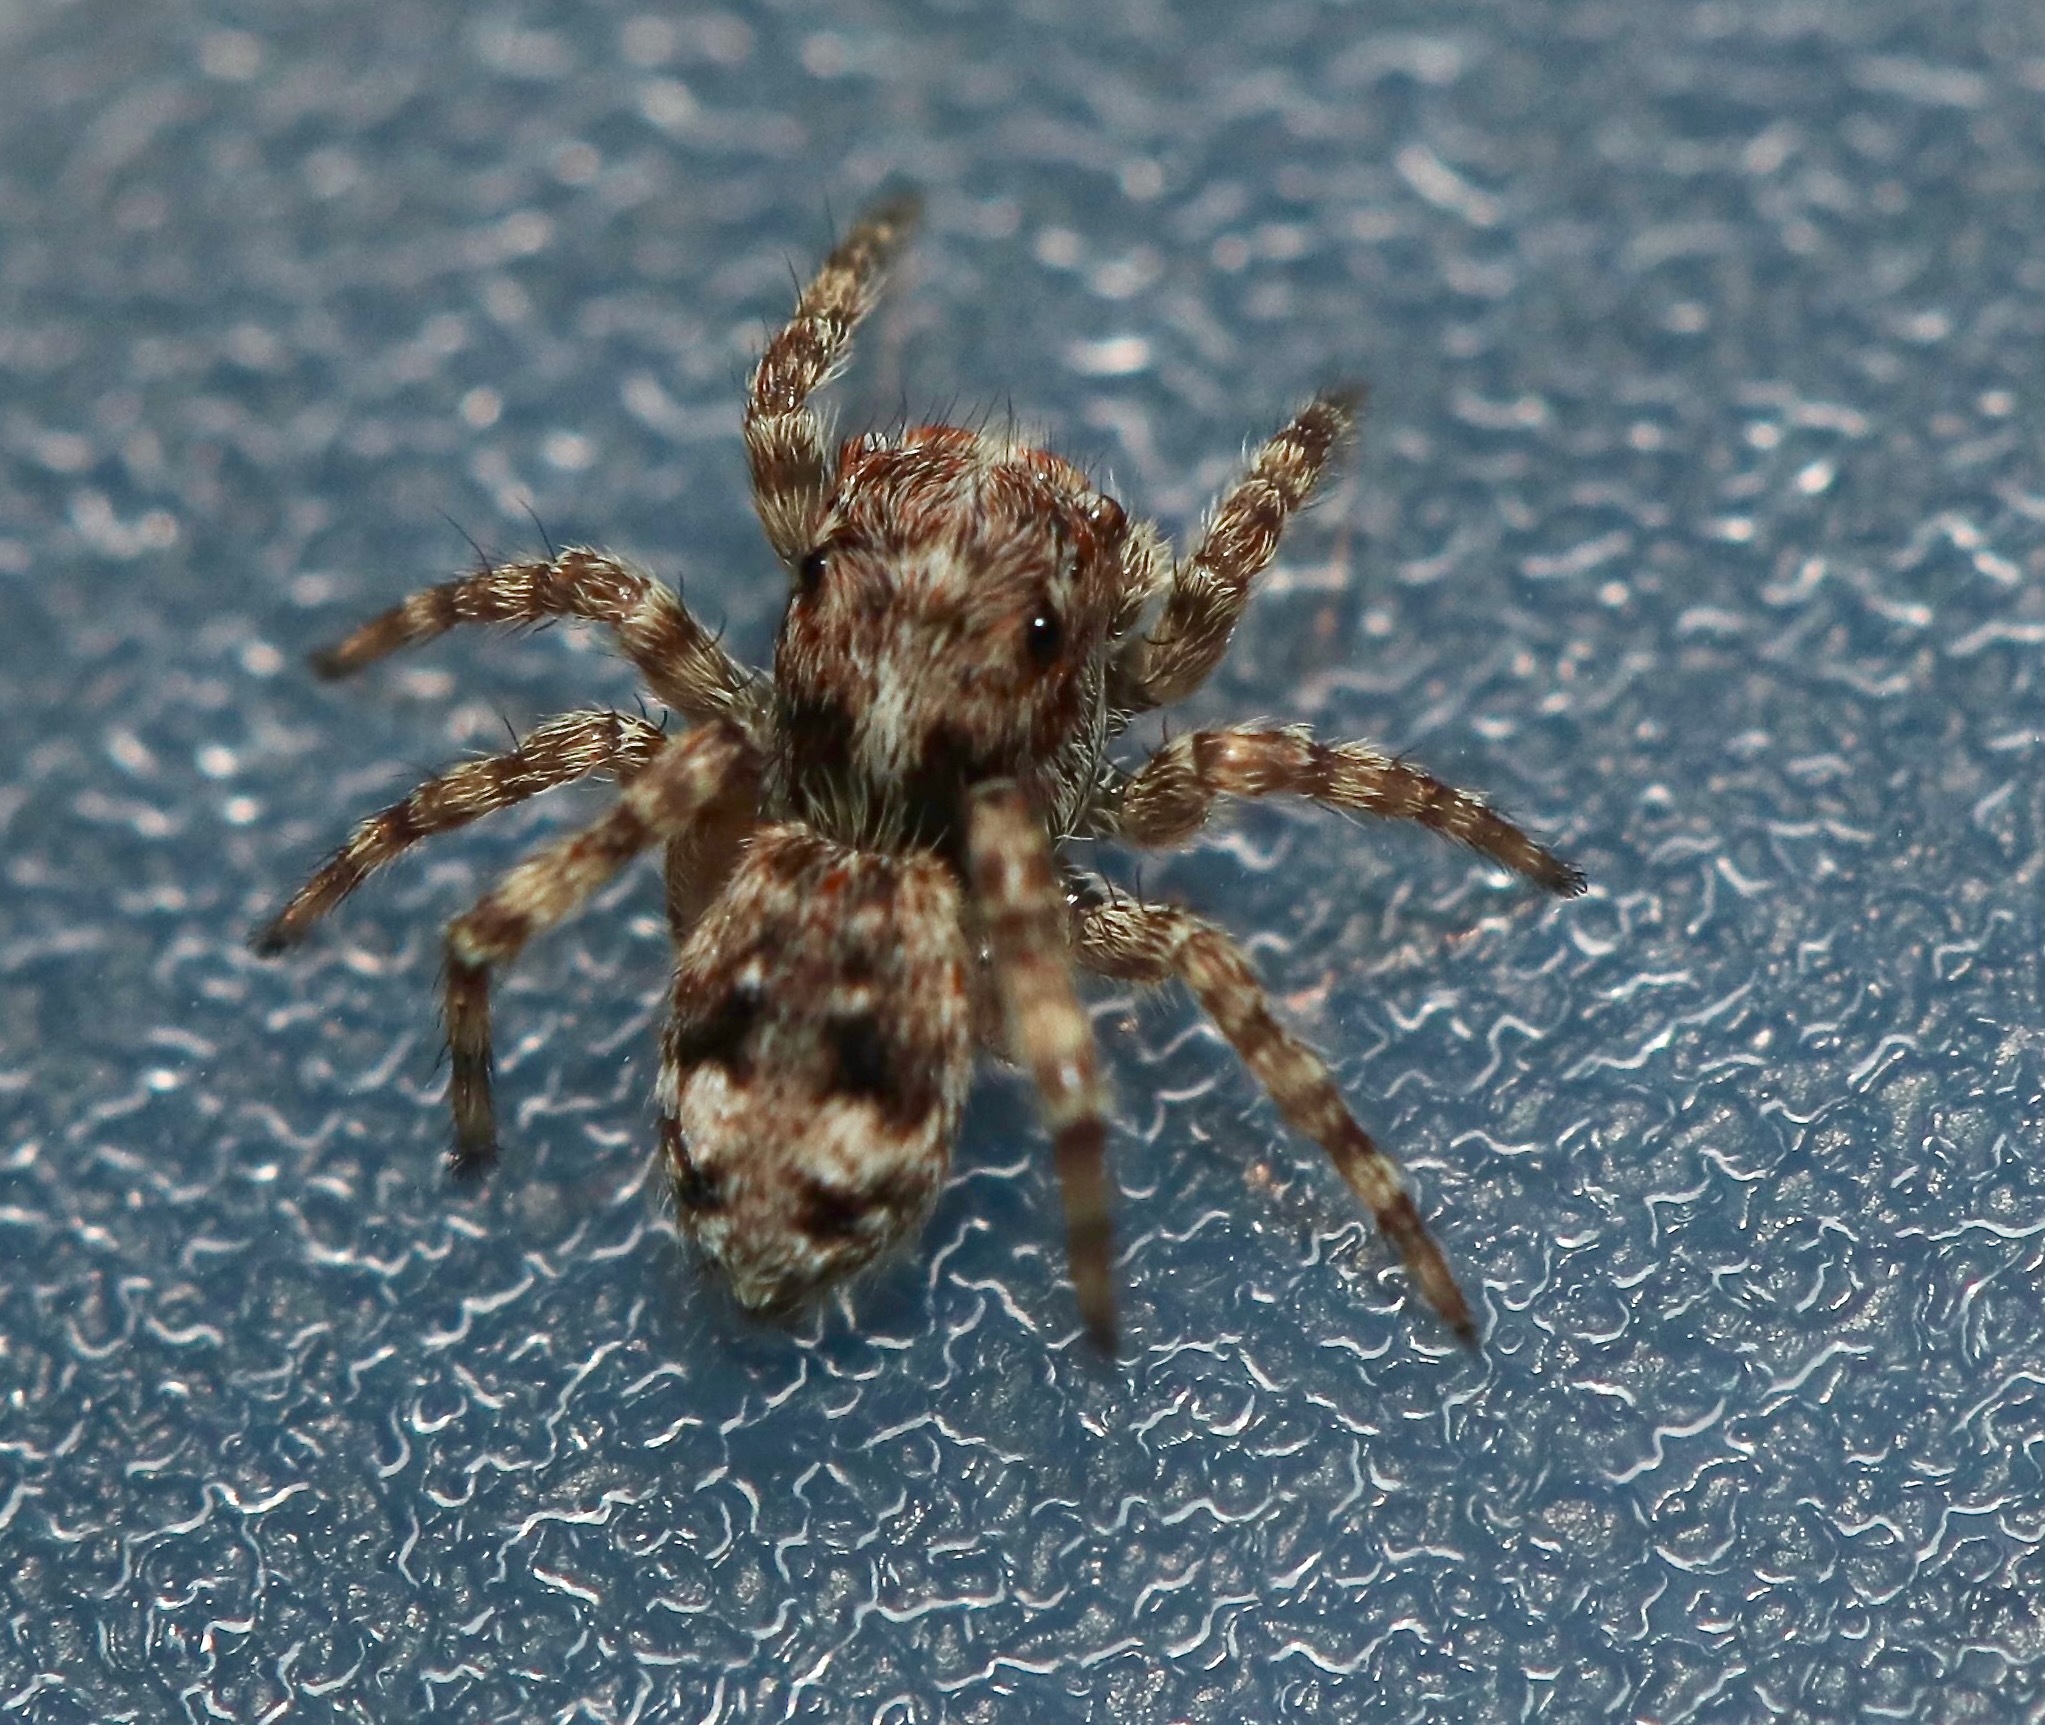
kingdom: Animalia
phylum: Arthropoda
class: Arachnida
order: Araneae
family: Salticidae
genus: Attulus
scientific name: Attulus fasciger
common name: Asiatic wall jumping spider
